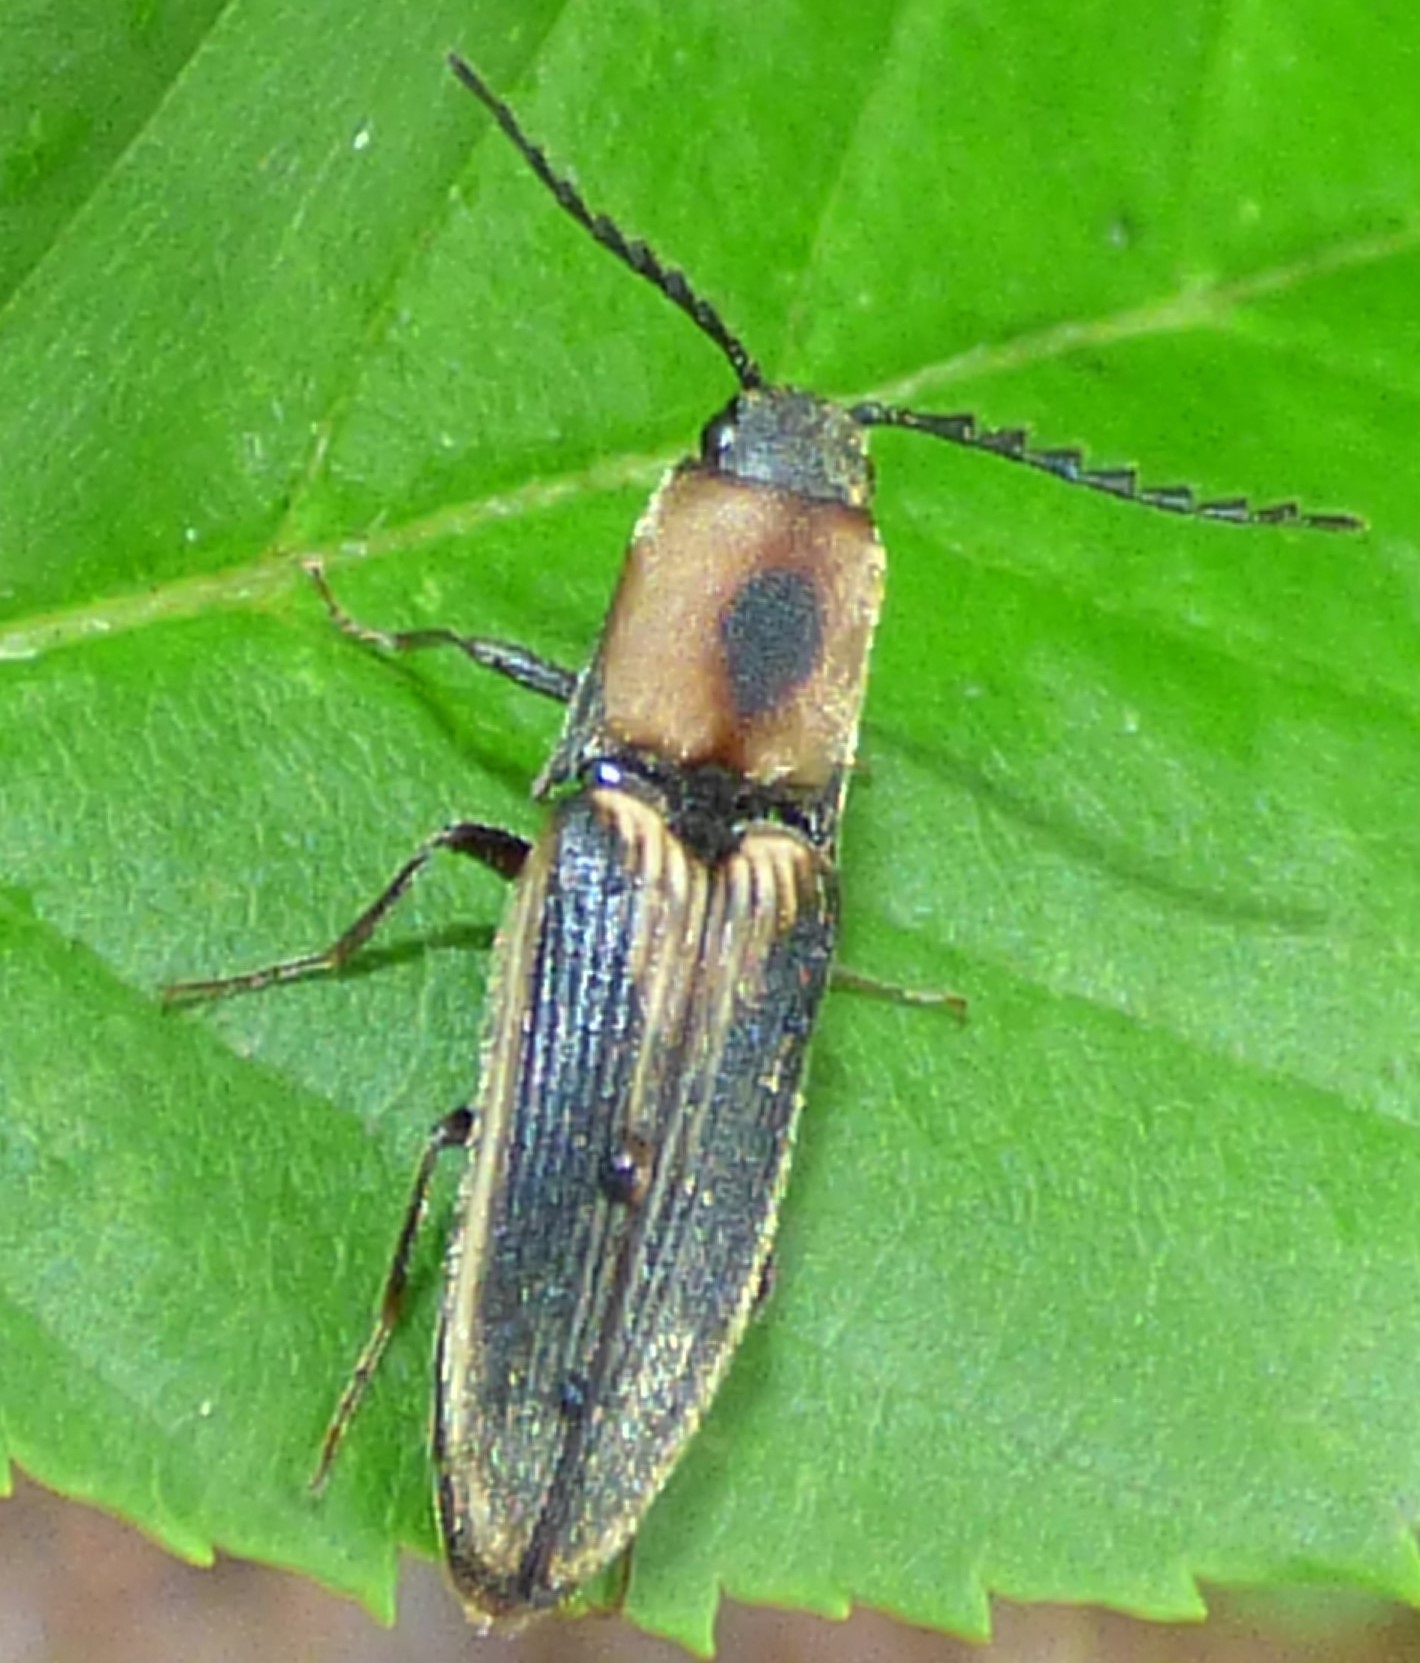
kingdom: Animalia
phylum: Arthropoda
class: Insecta
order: Coleoptera
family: Elateridae
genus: Megapenthes
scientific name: Megapenthes
